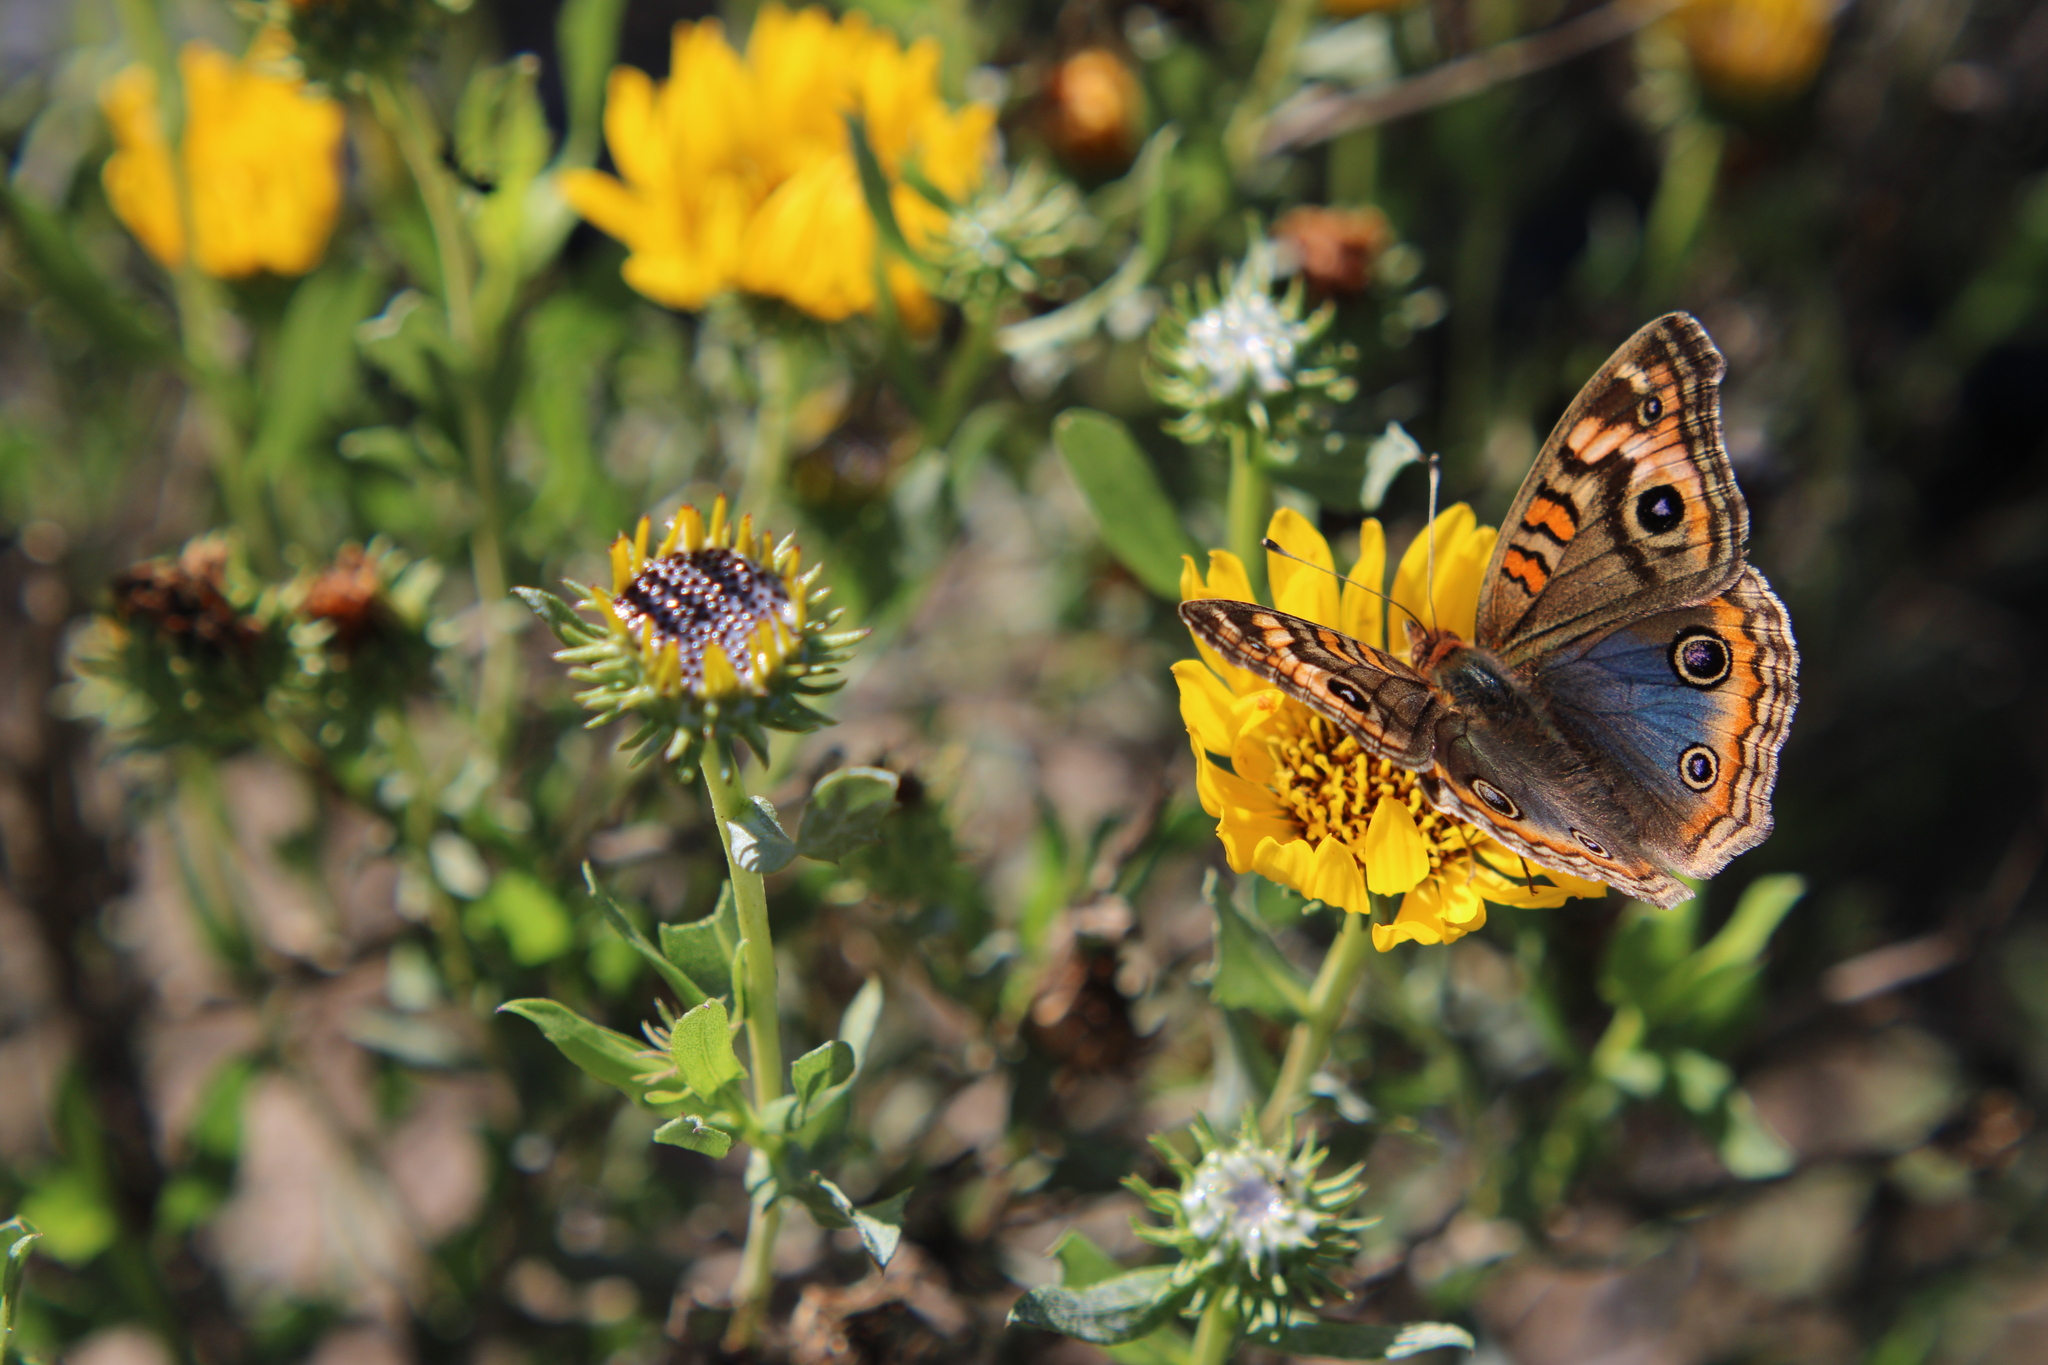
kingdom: Animalia
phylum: Arthropoda
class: Insecta
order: Lepidoptera
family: Nymphalidae
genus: Junonia
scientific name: Junonia lavinia
